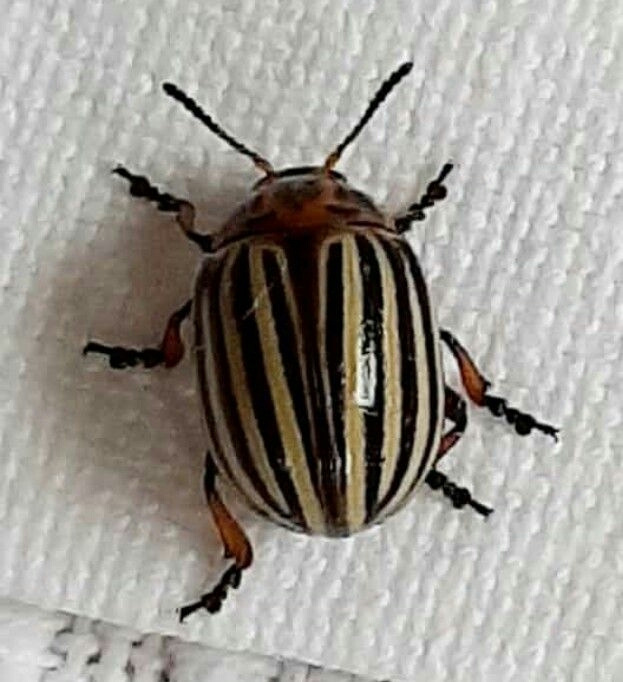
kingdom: Animalia
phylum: Arthropoda
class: Insecta
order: Coleoptera
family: Chrysomelidae
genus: Leptinotarsa
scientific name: Leptinotarsa decemlineata
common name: Colorado potato beetle
